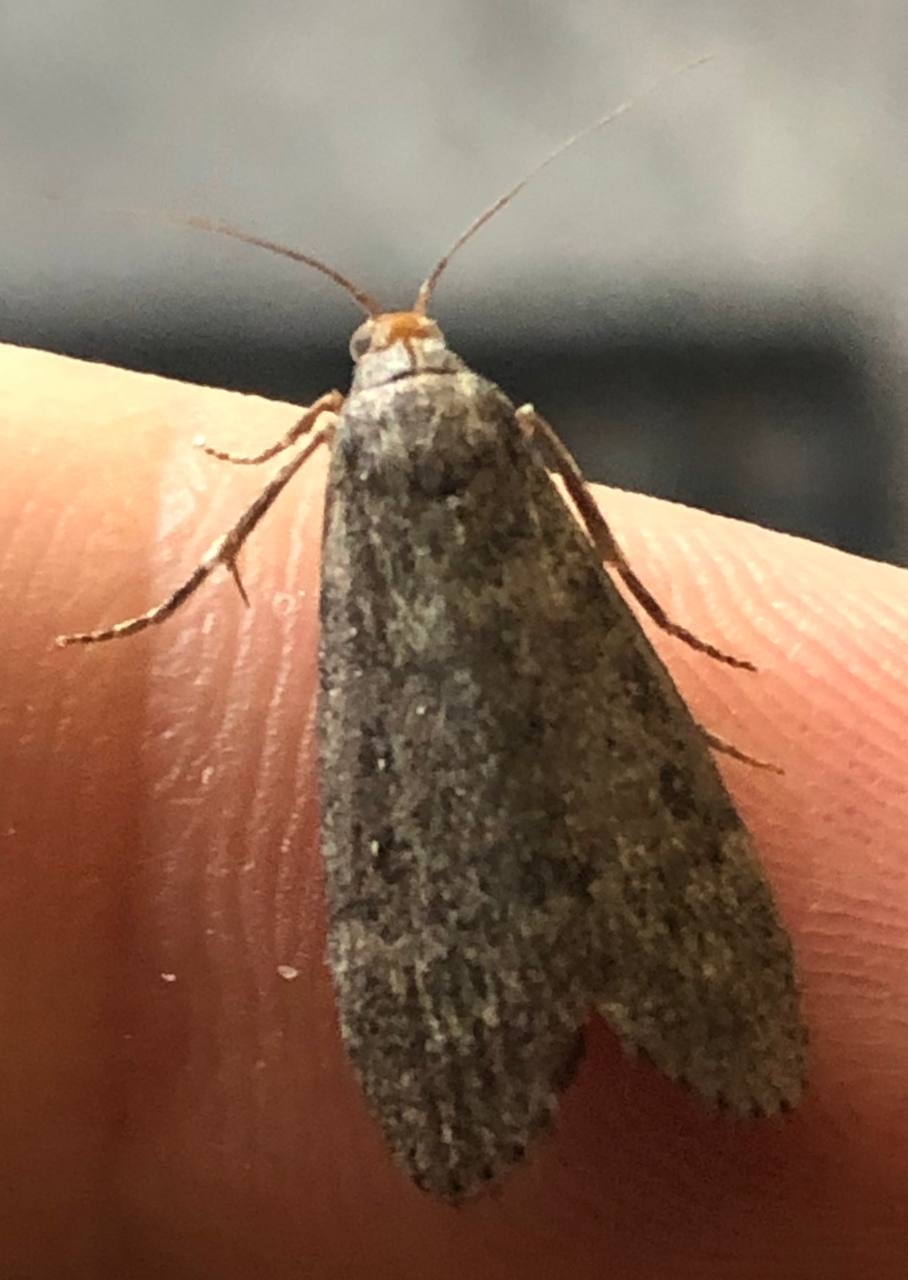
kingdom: Animalia
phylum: Arthropoda
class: Insecta
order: Lepidoptera
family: Pyralidae
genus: Lamoria
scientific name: Lamoria anella
